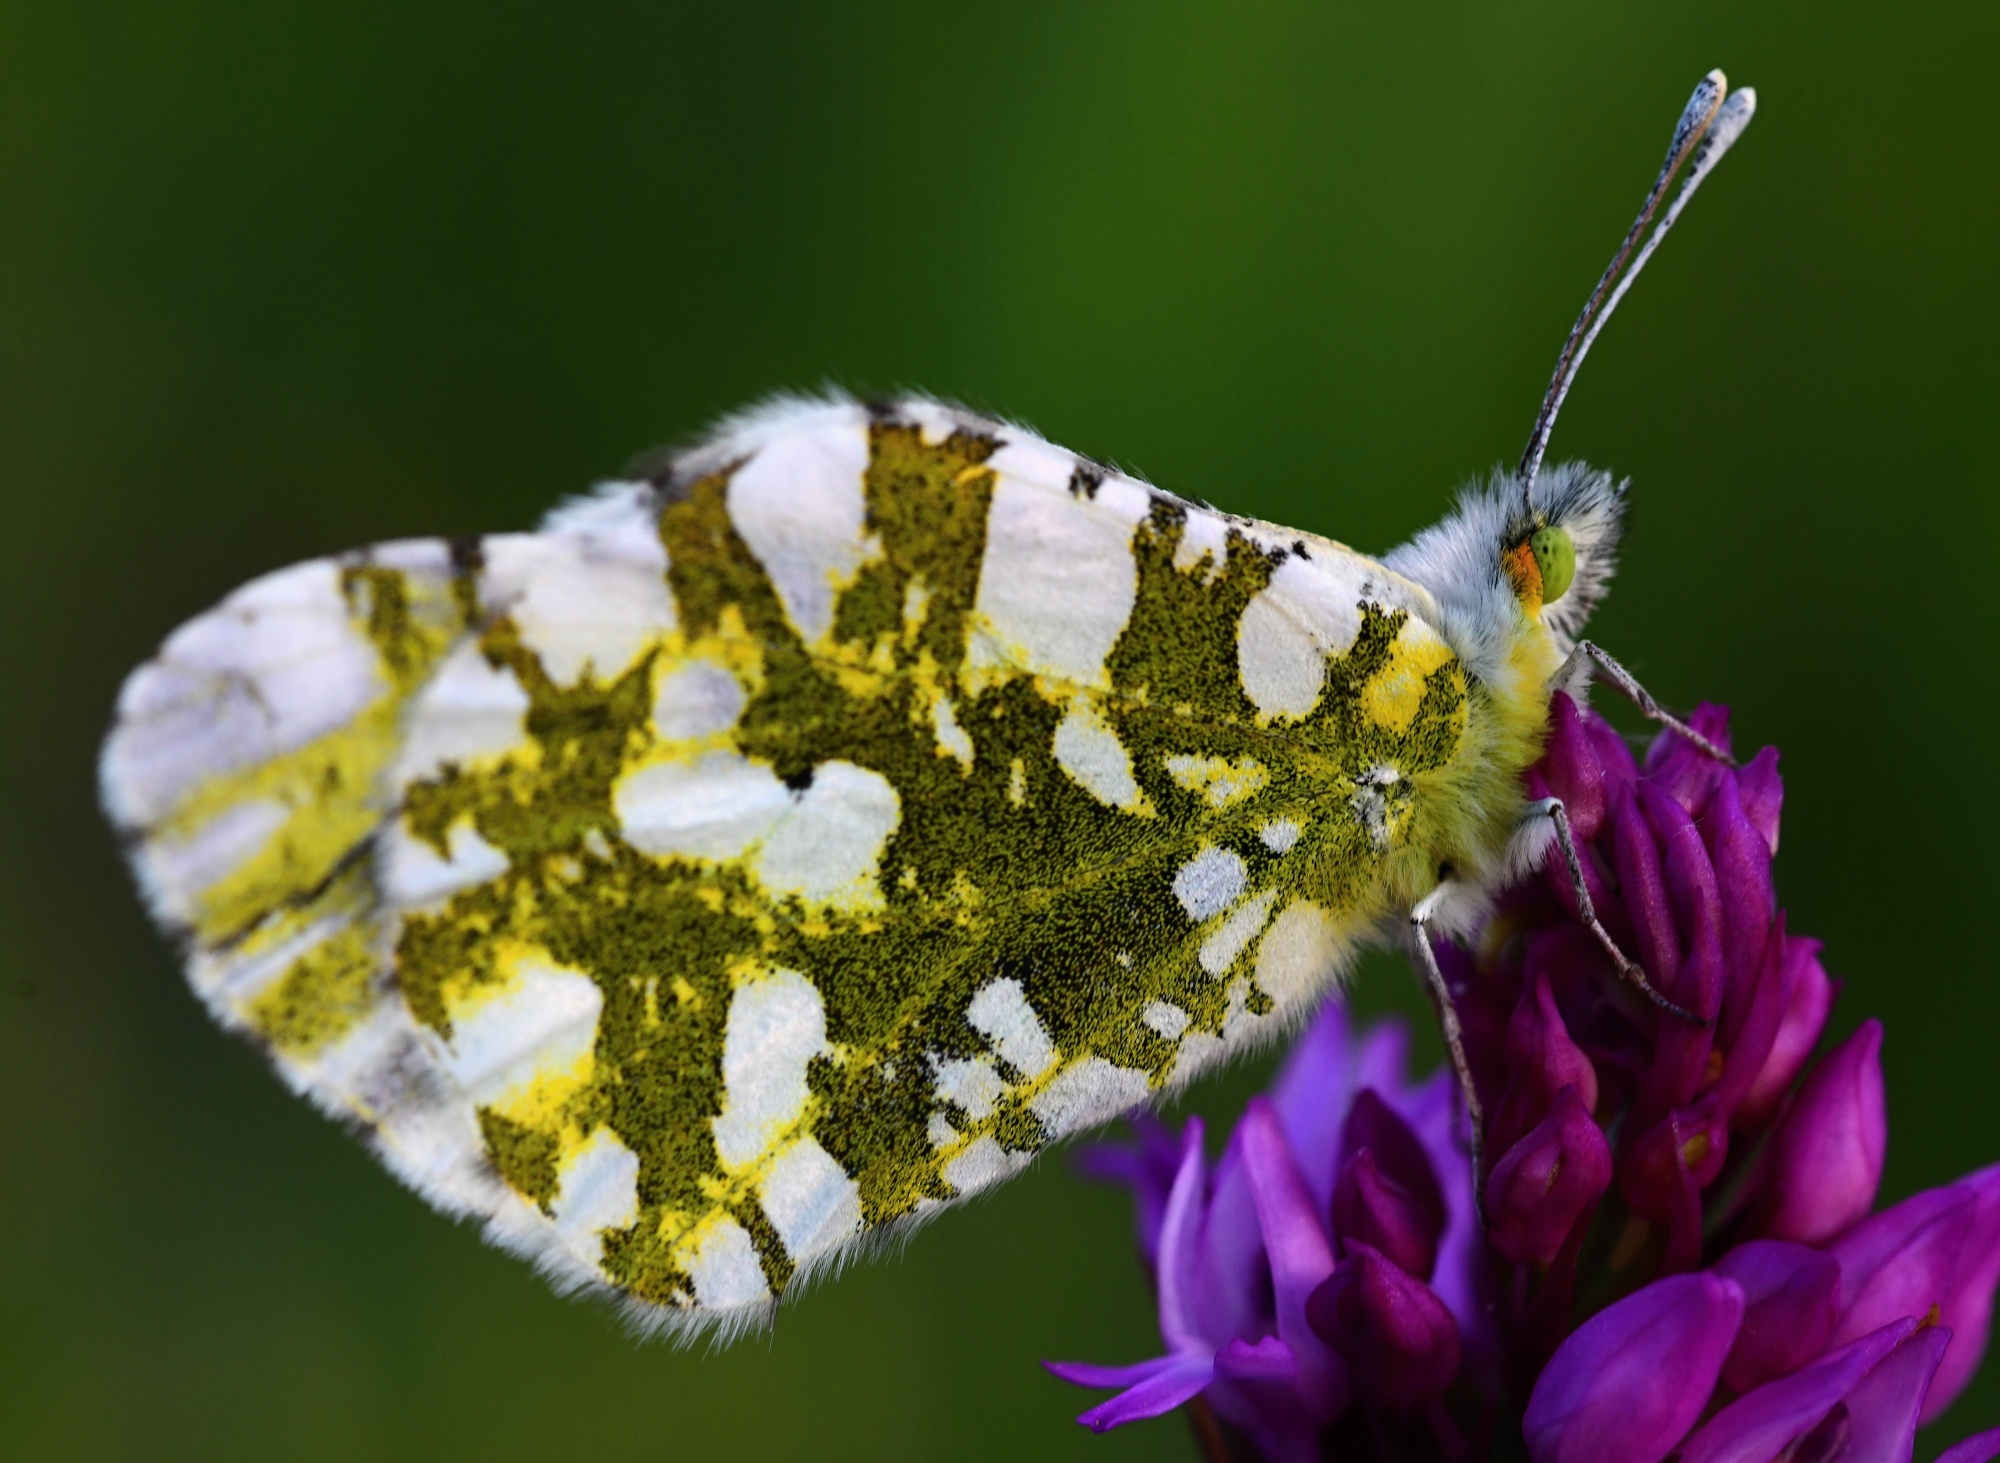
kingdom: Animalia
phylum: Arthropoda
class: Insecta
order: Lepidoptera
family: Pieridae
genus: Euchloe
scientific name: Euchloe ausonia
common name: Eastern dappled white
